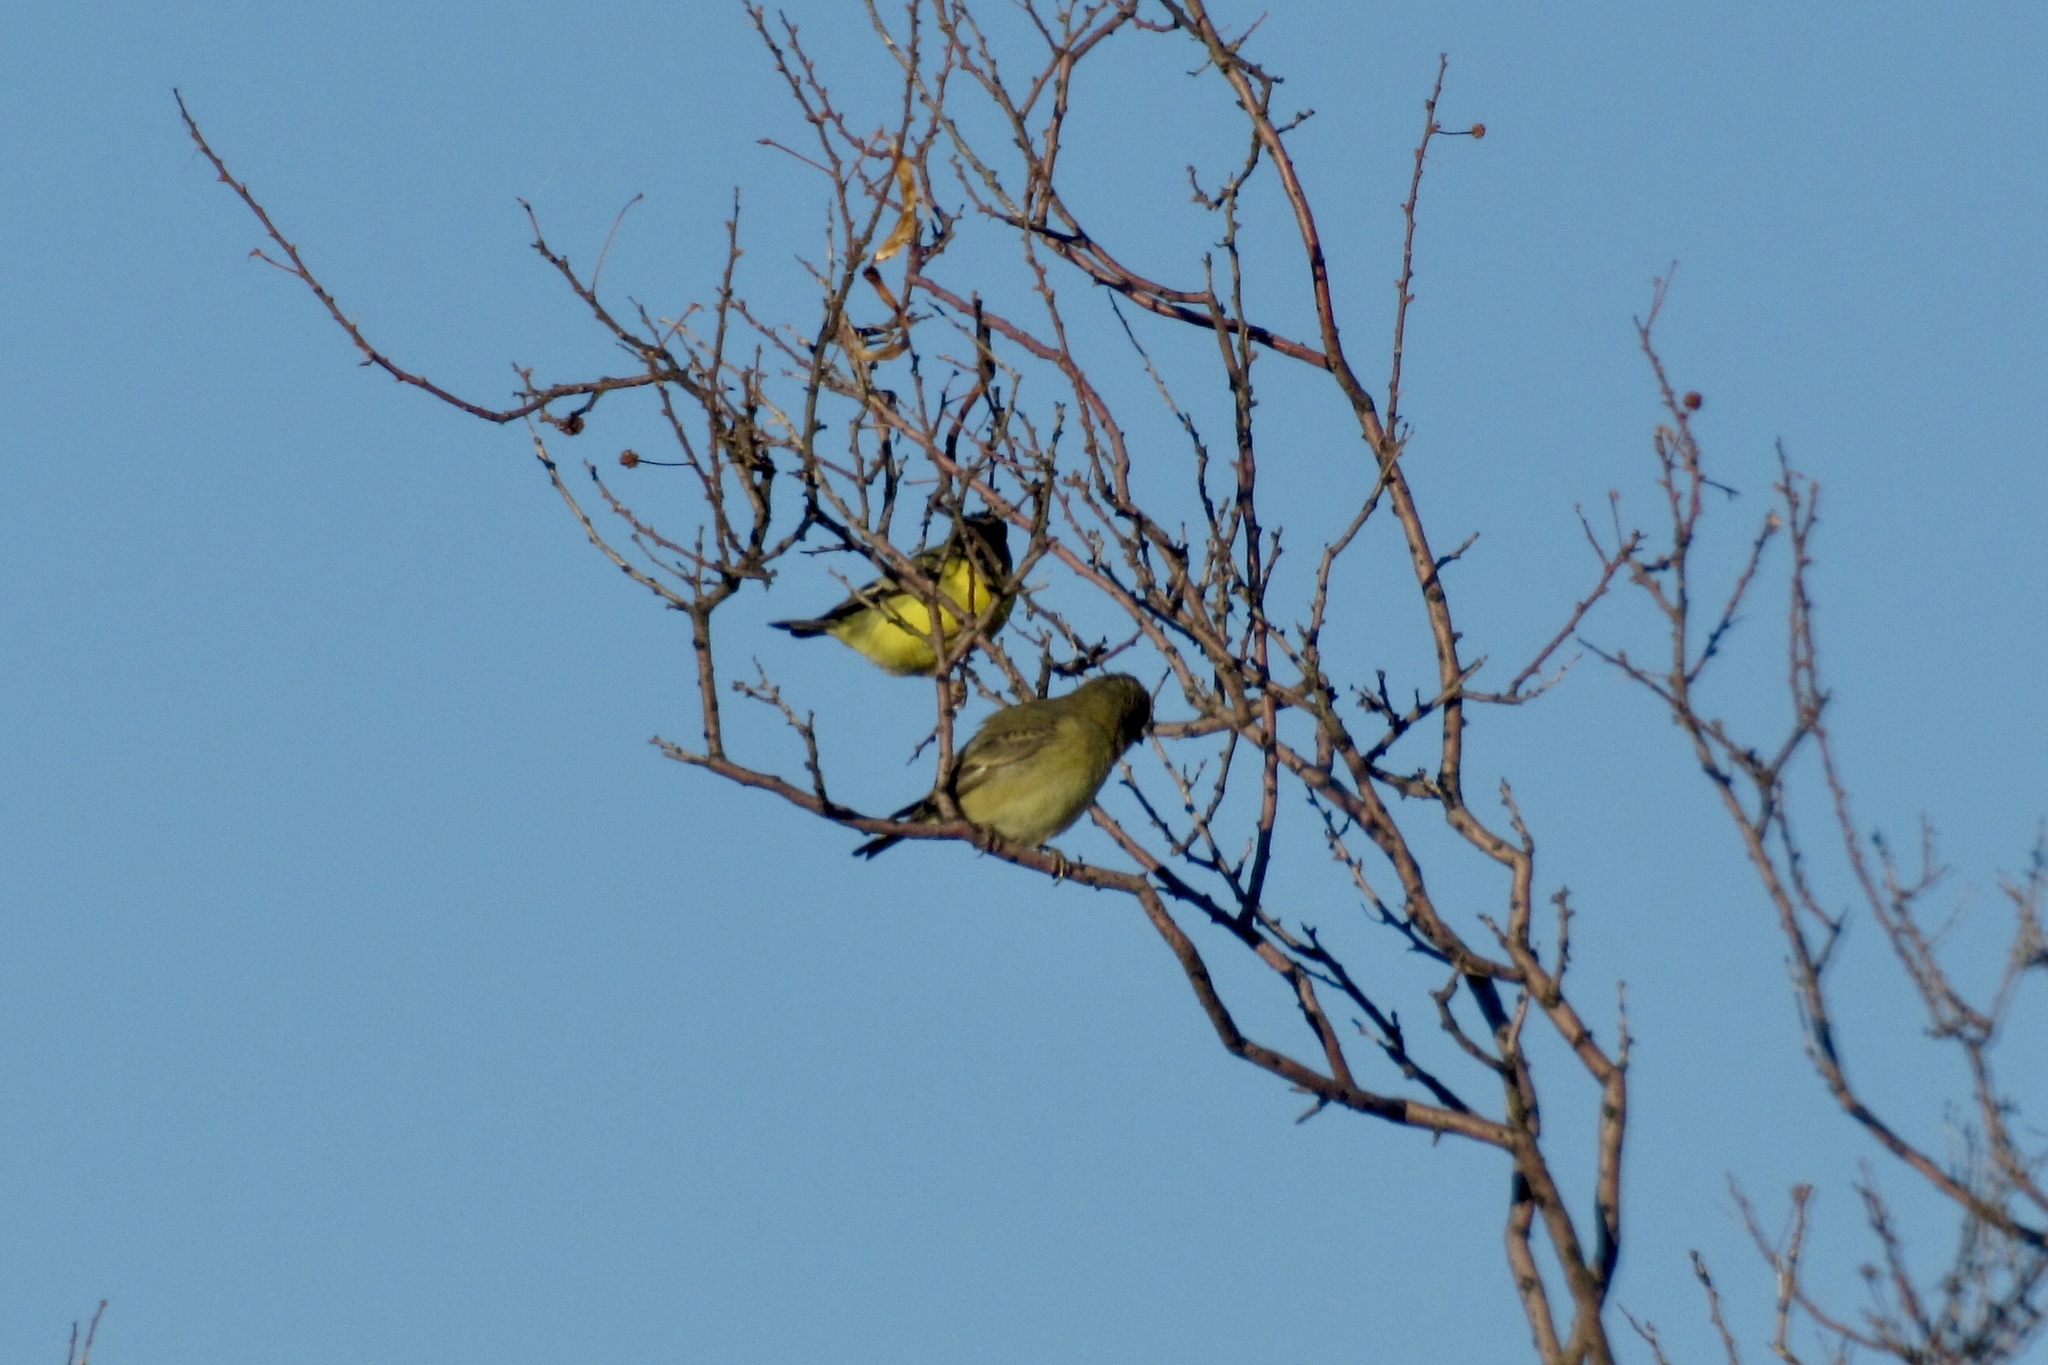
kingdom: Animalia
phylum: Chordata
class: Aves
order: Passeriformes
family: Fringillidae
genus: Spinus
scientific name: Spinus psaltria
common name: Lesser goldfinch
